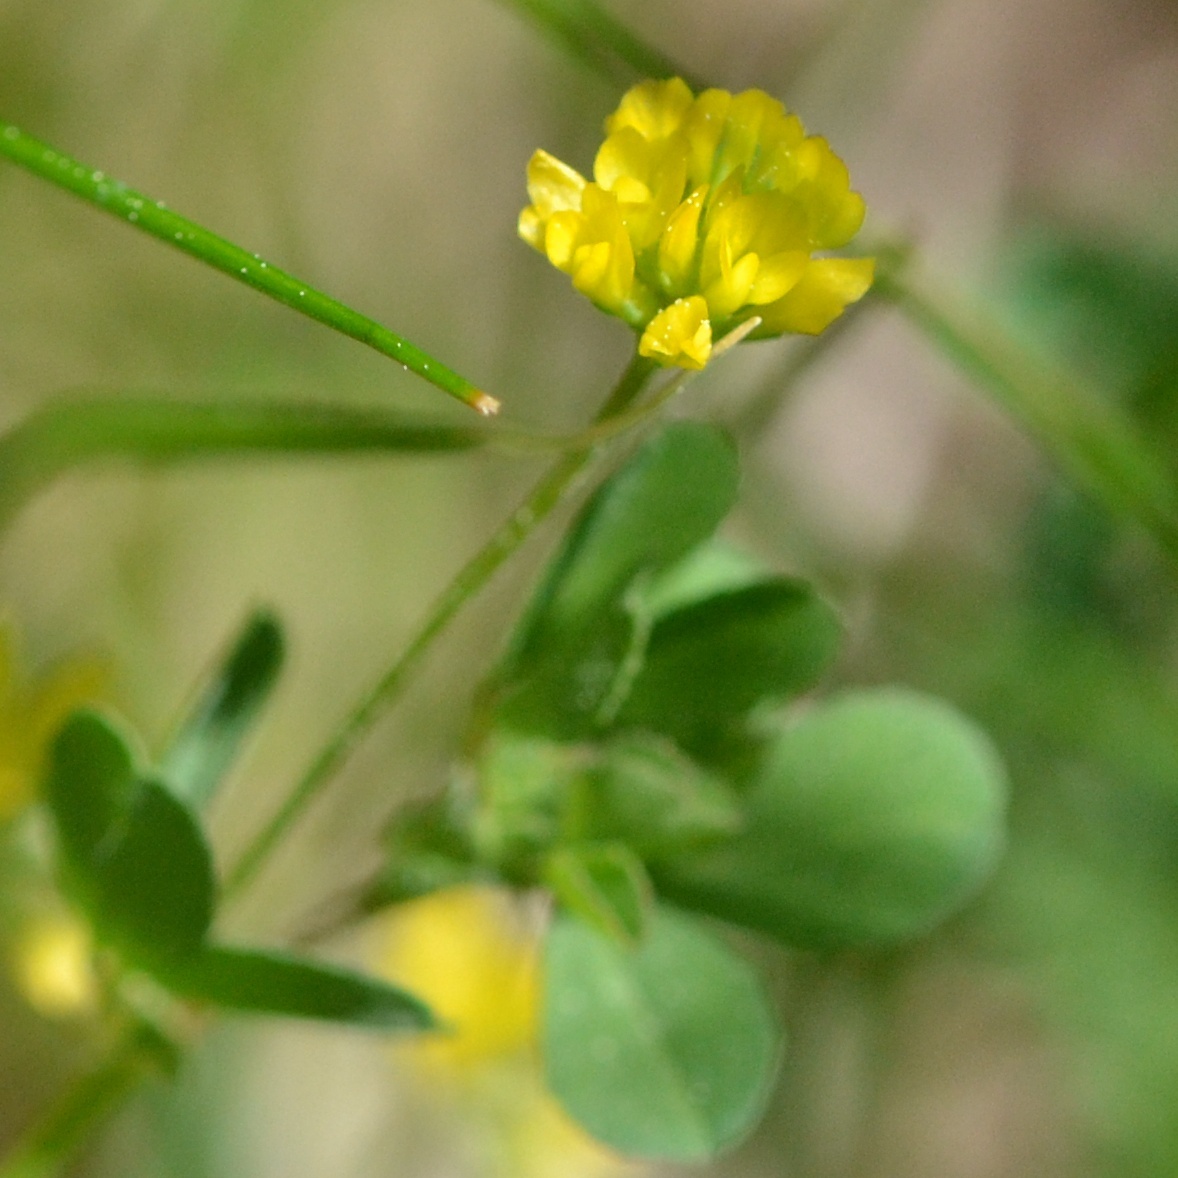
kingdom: Plantae
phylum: Tracheophyta
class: Magnoliopsida
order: Fabales
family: Fabaceae
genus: Trifolium
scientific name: Trifolium dubium
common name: Suckling clover
